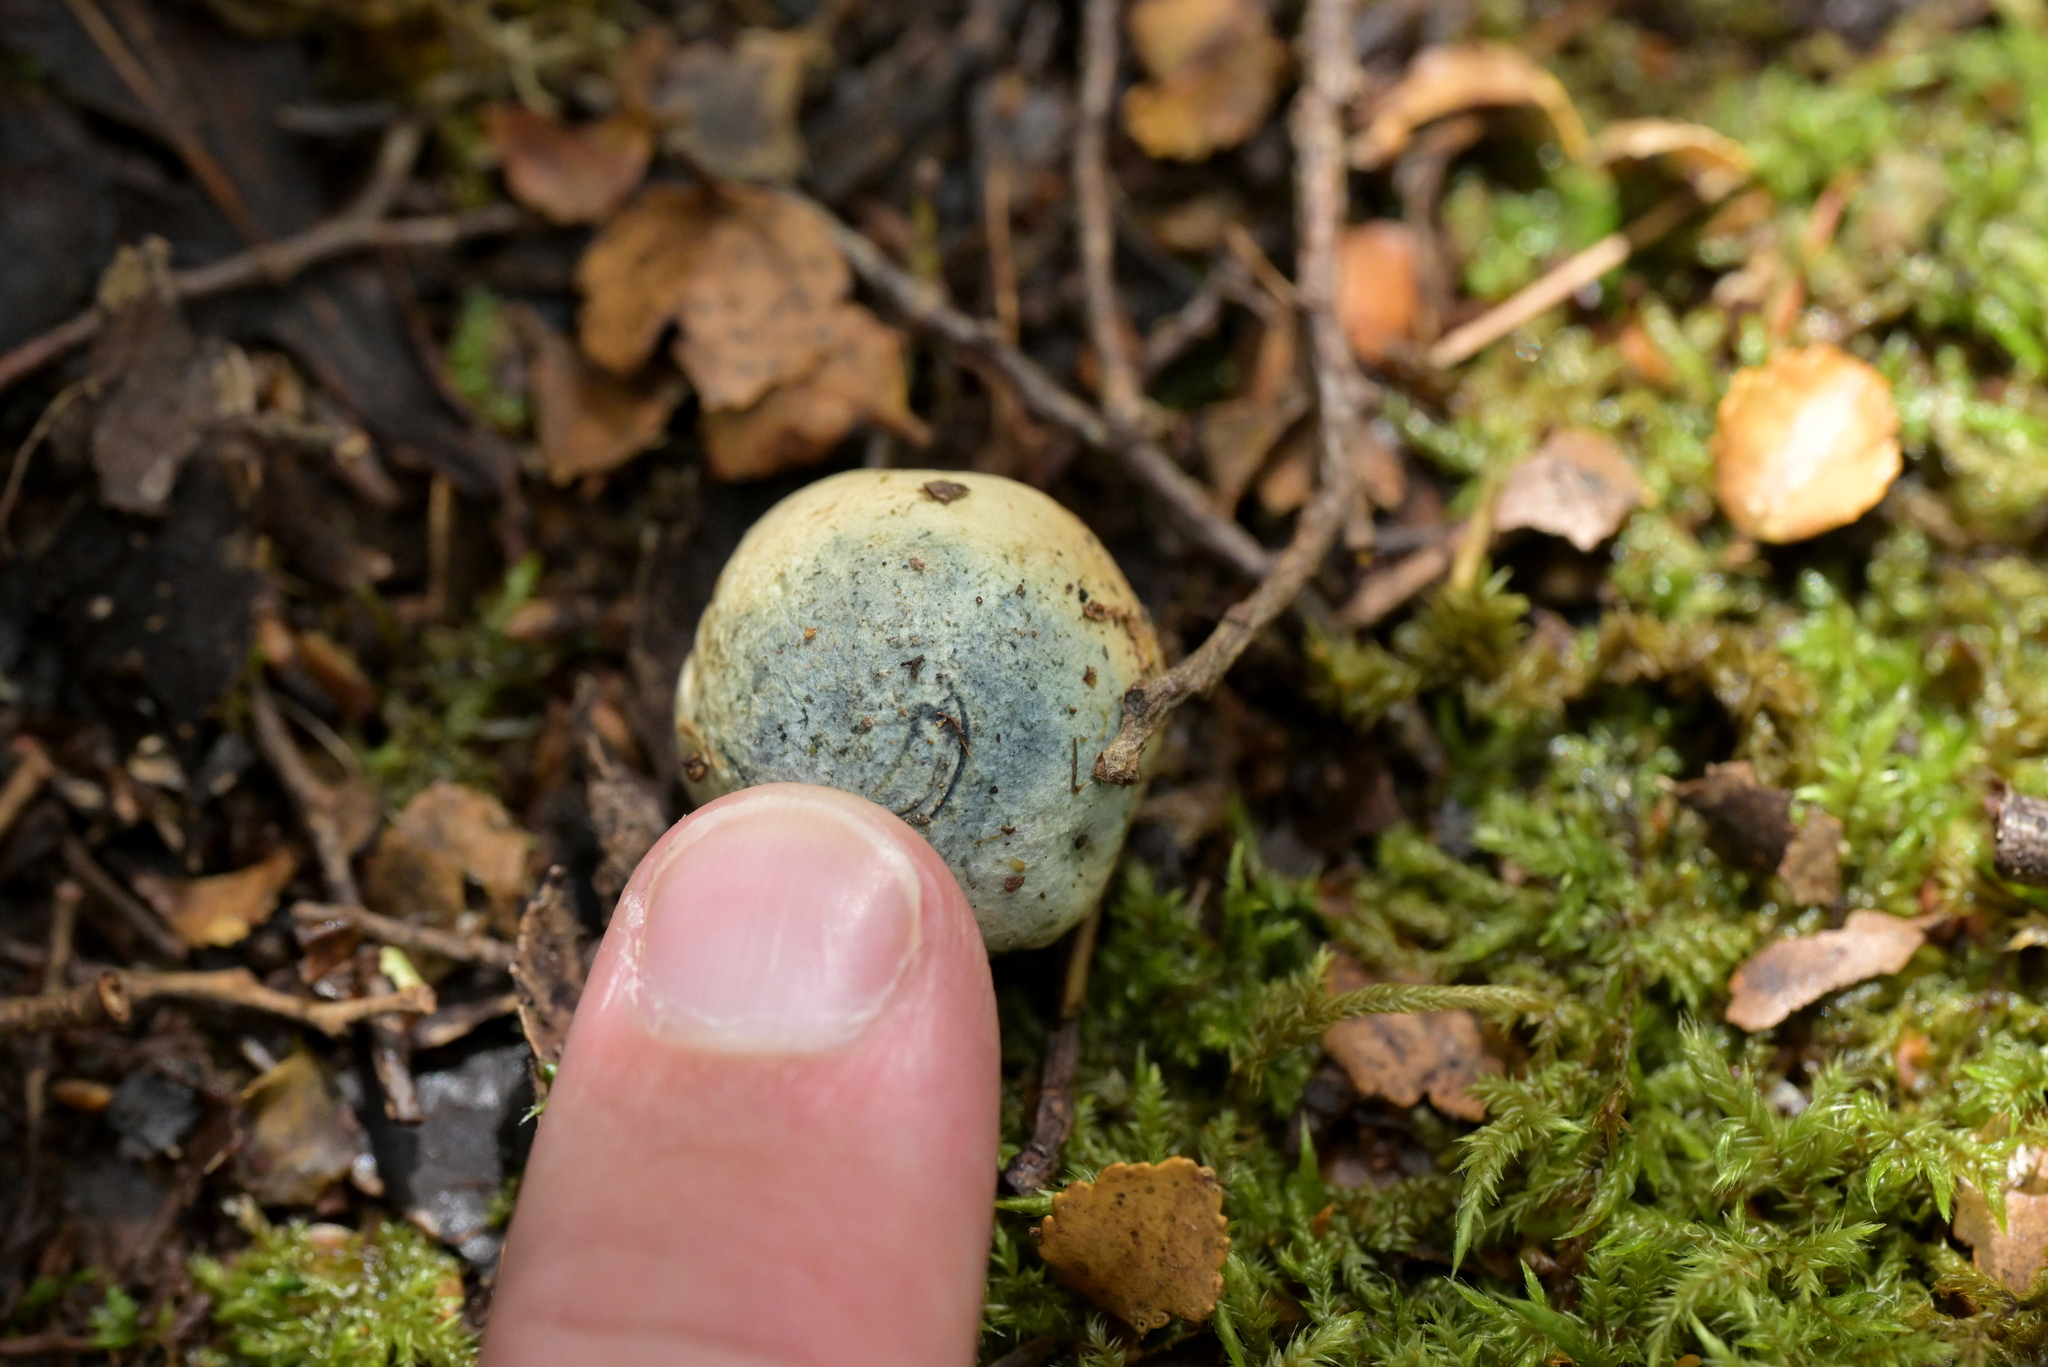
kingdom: Fungi
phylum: Basidiomycota
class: Agaricomycetes
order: Boletales
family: Boletaceae
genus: Leccinum
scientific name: Leccinum pachyderme
